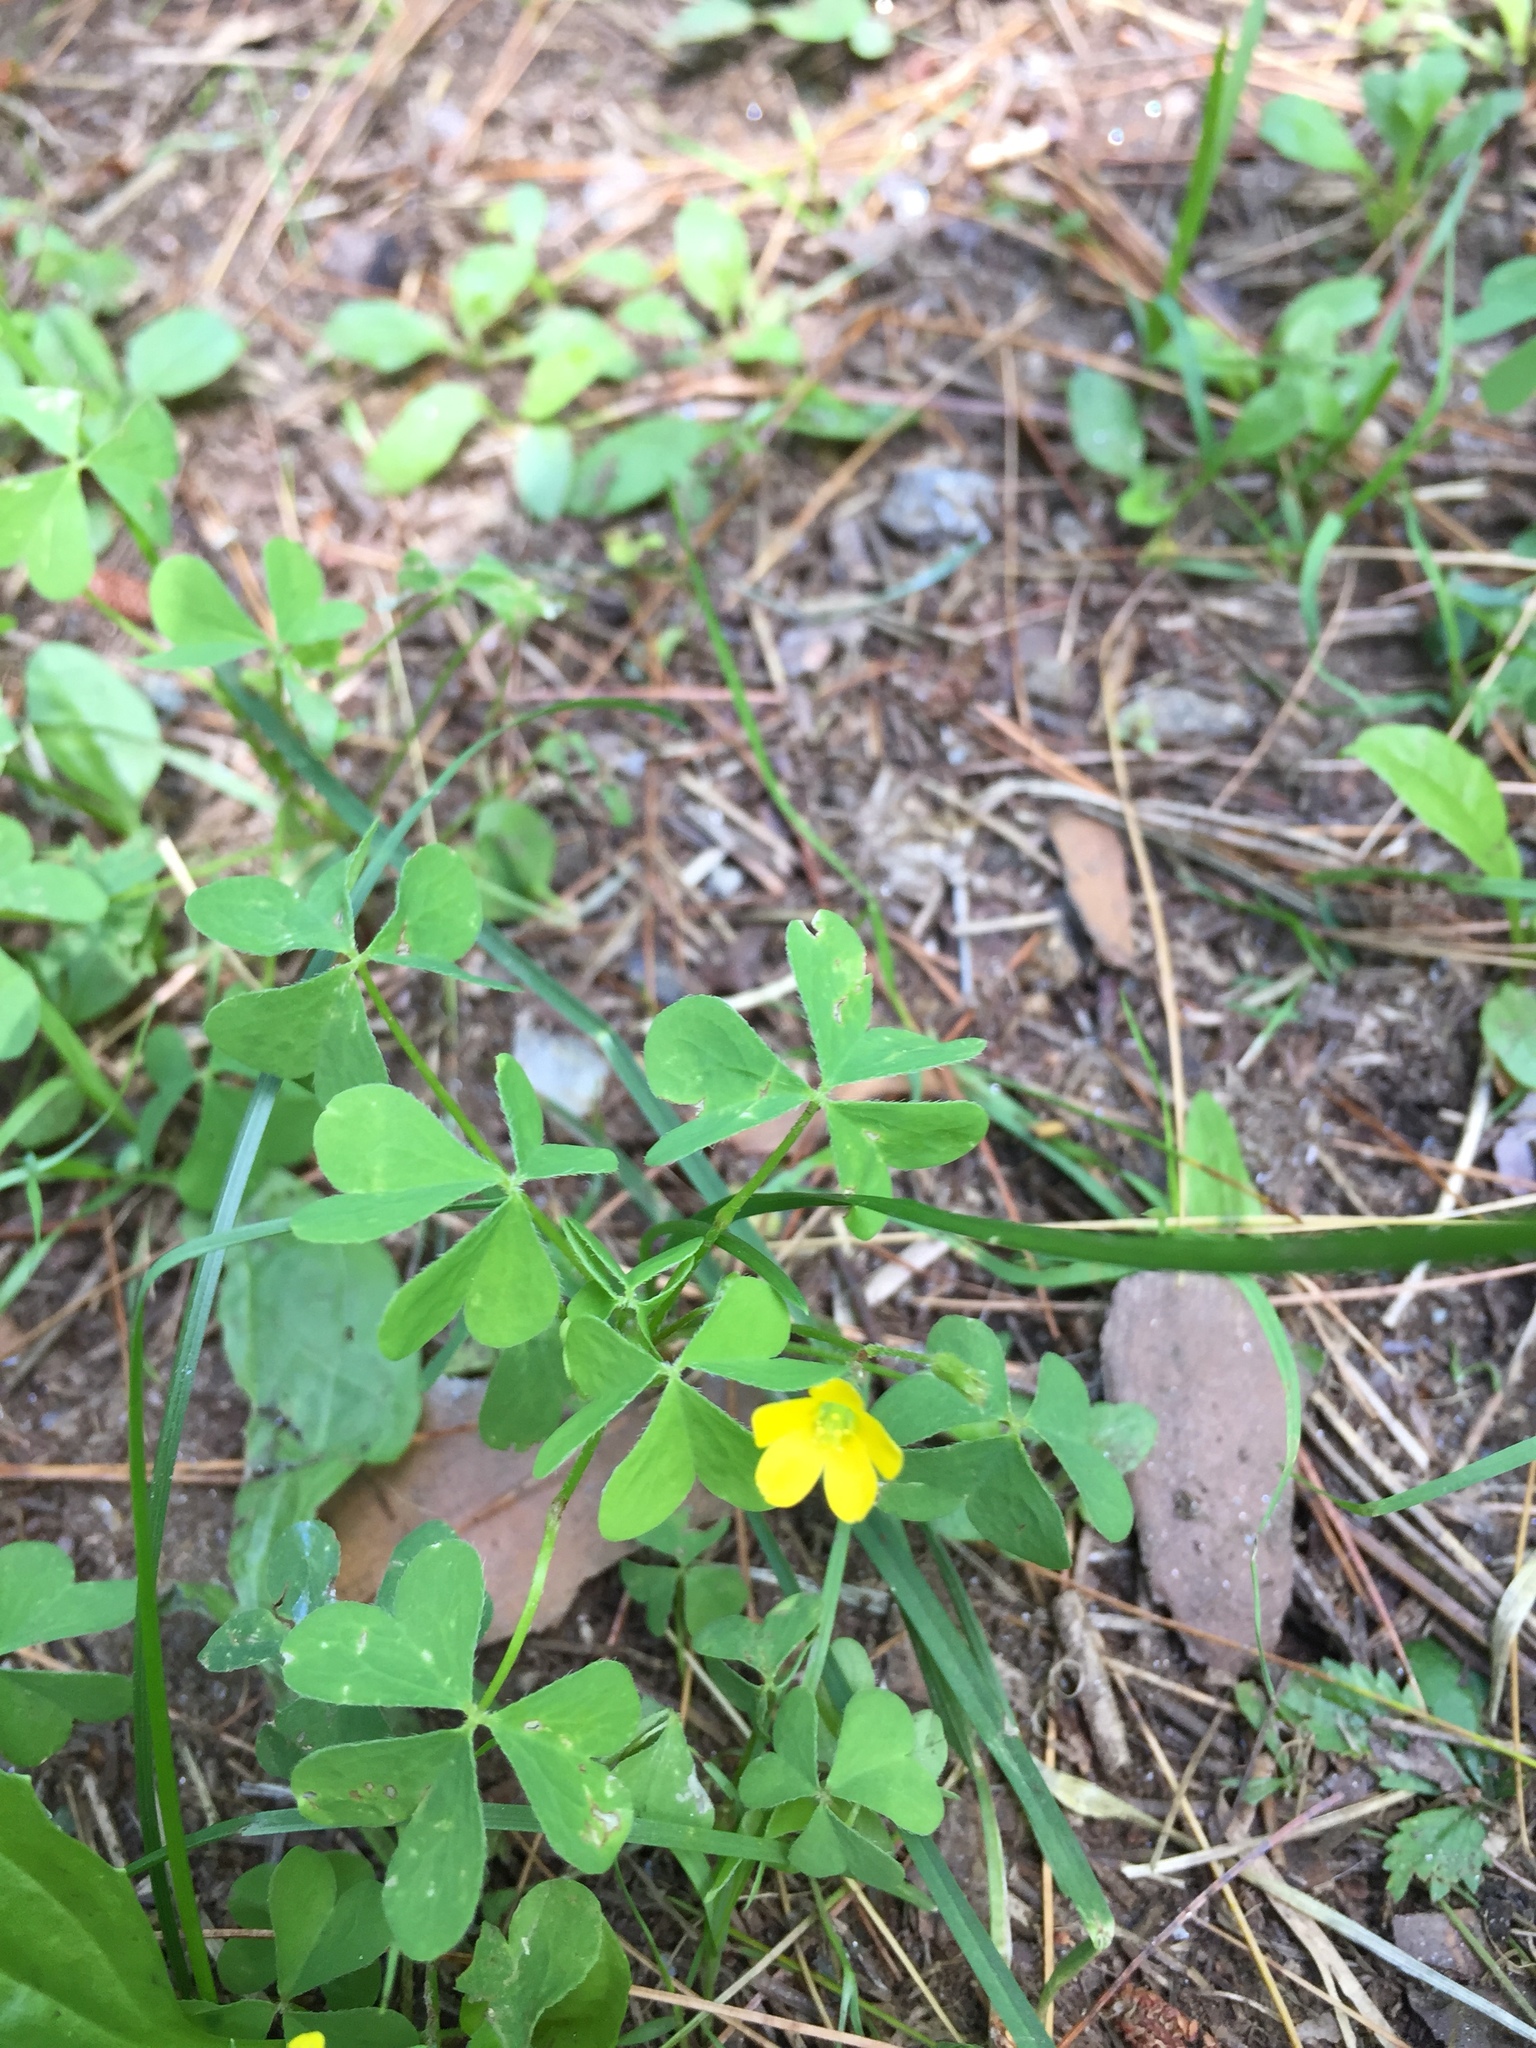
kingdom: Plantae
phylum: Tracheophyta
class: Magnoliopsida
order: Oxalidales
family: Oxalidaceae
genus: Oxalis
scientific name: Oxalis stricta
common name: Upright yellow-sorrel
